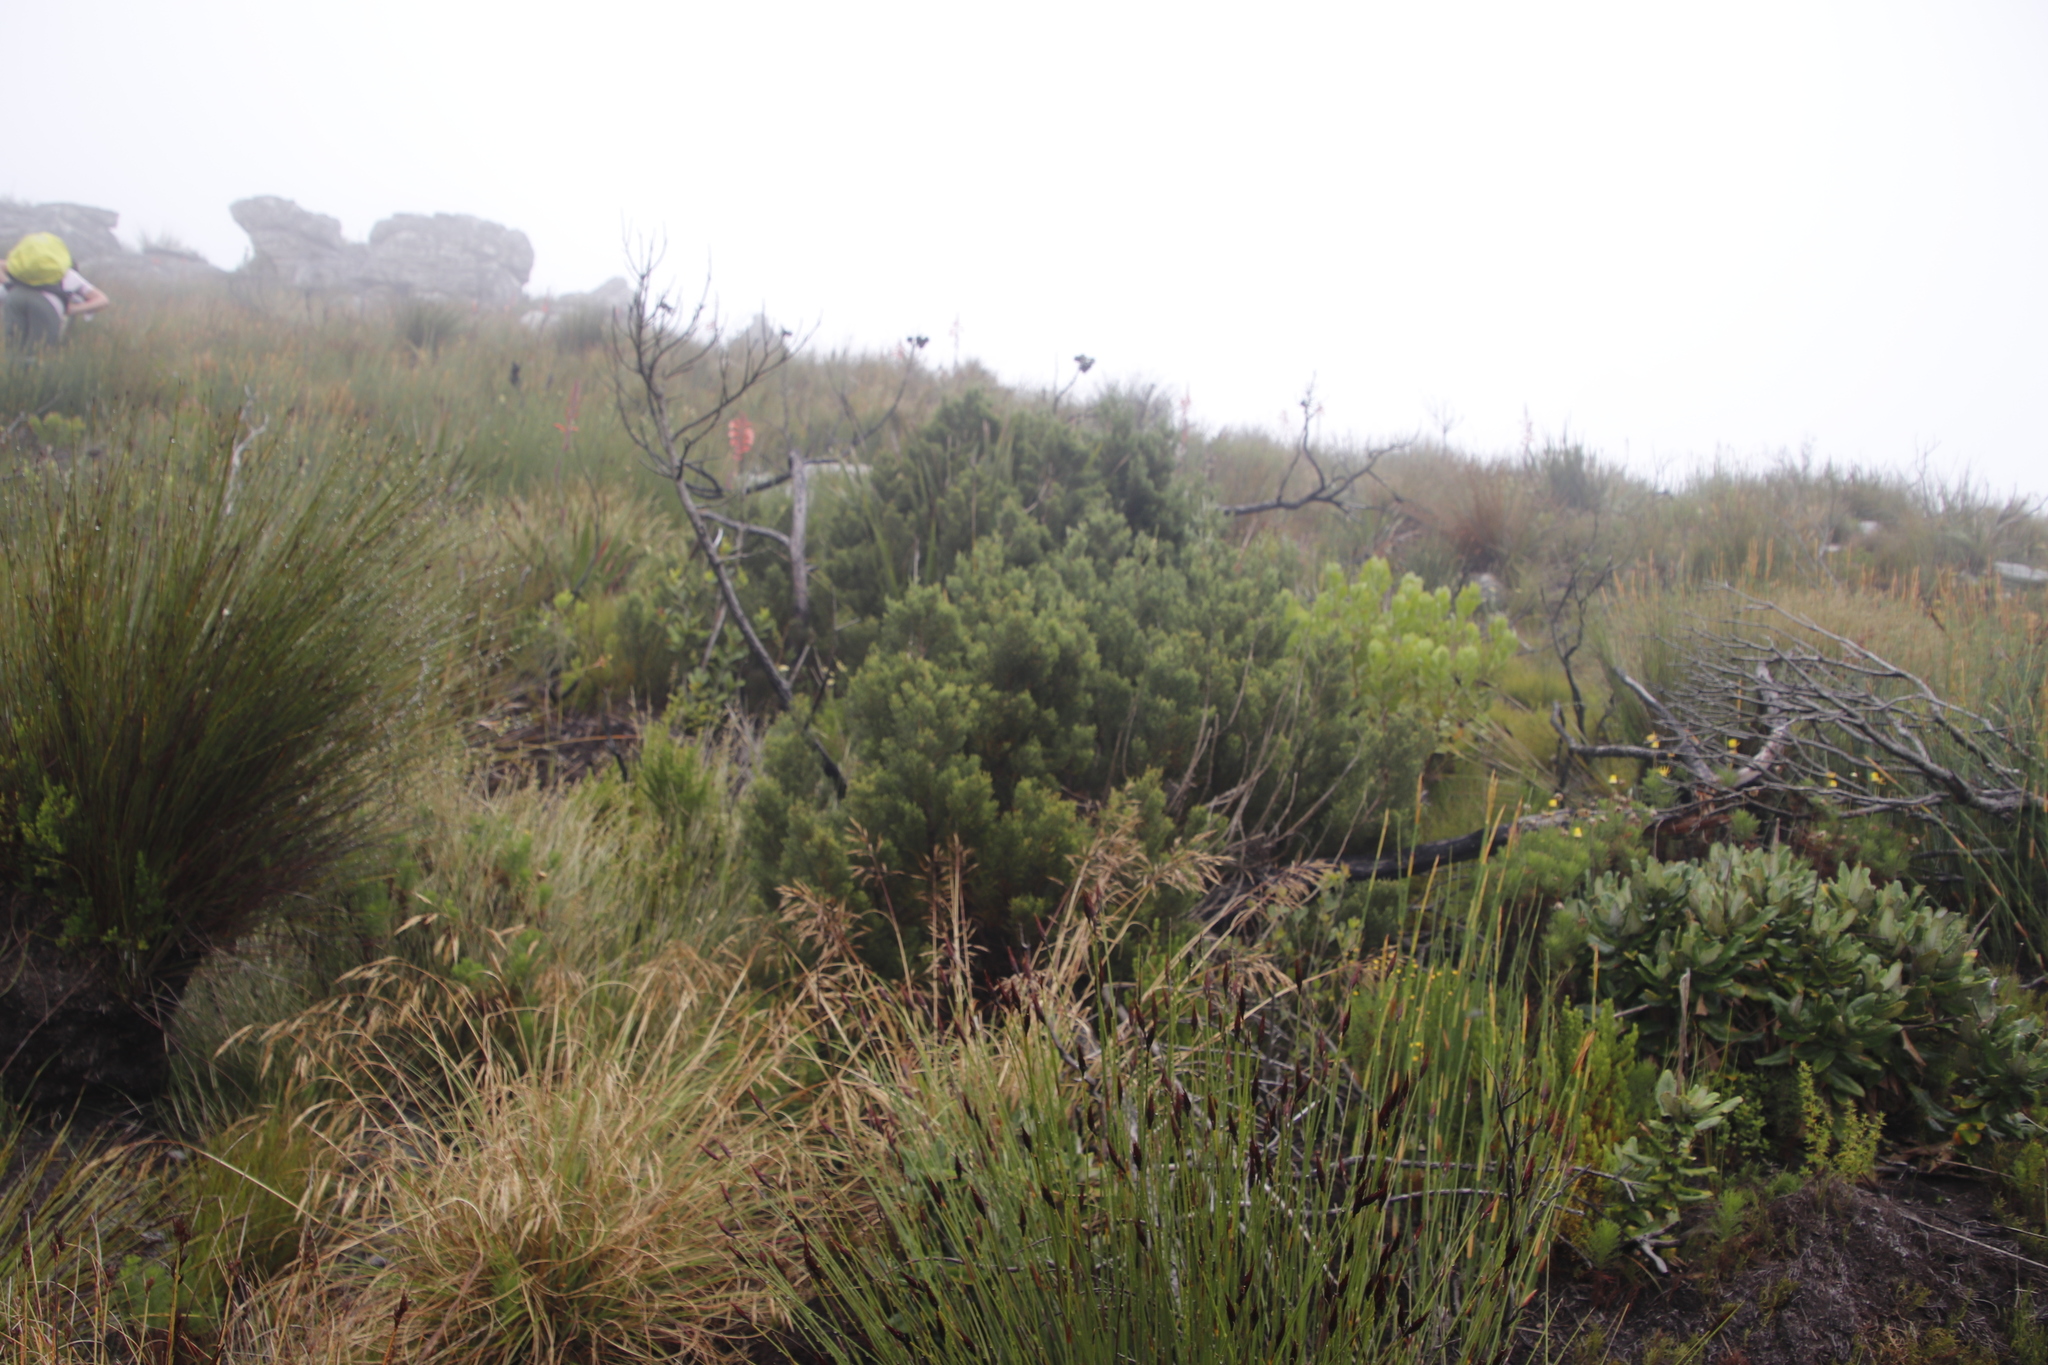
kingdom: Plantae
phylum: Tracheophyta
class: Pinopsida
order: Pinales
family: Cupressaceae
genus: Widdringtonia
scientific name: Widdringtonia nodiflora
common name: Cape cypress
